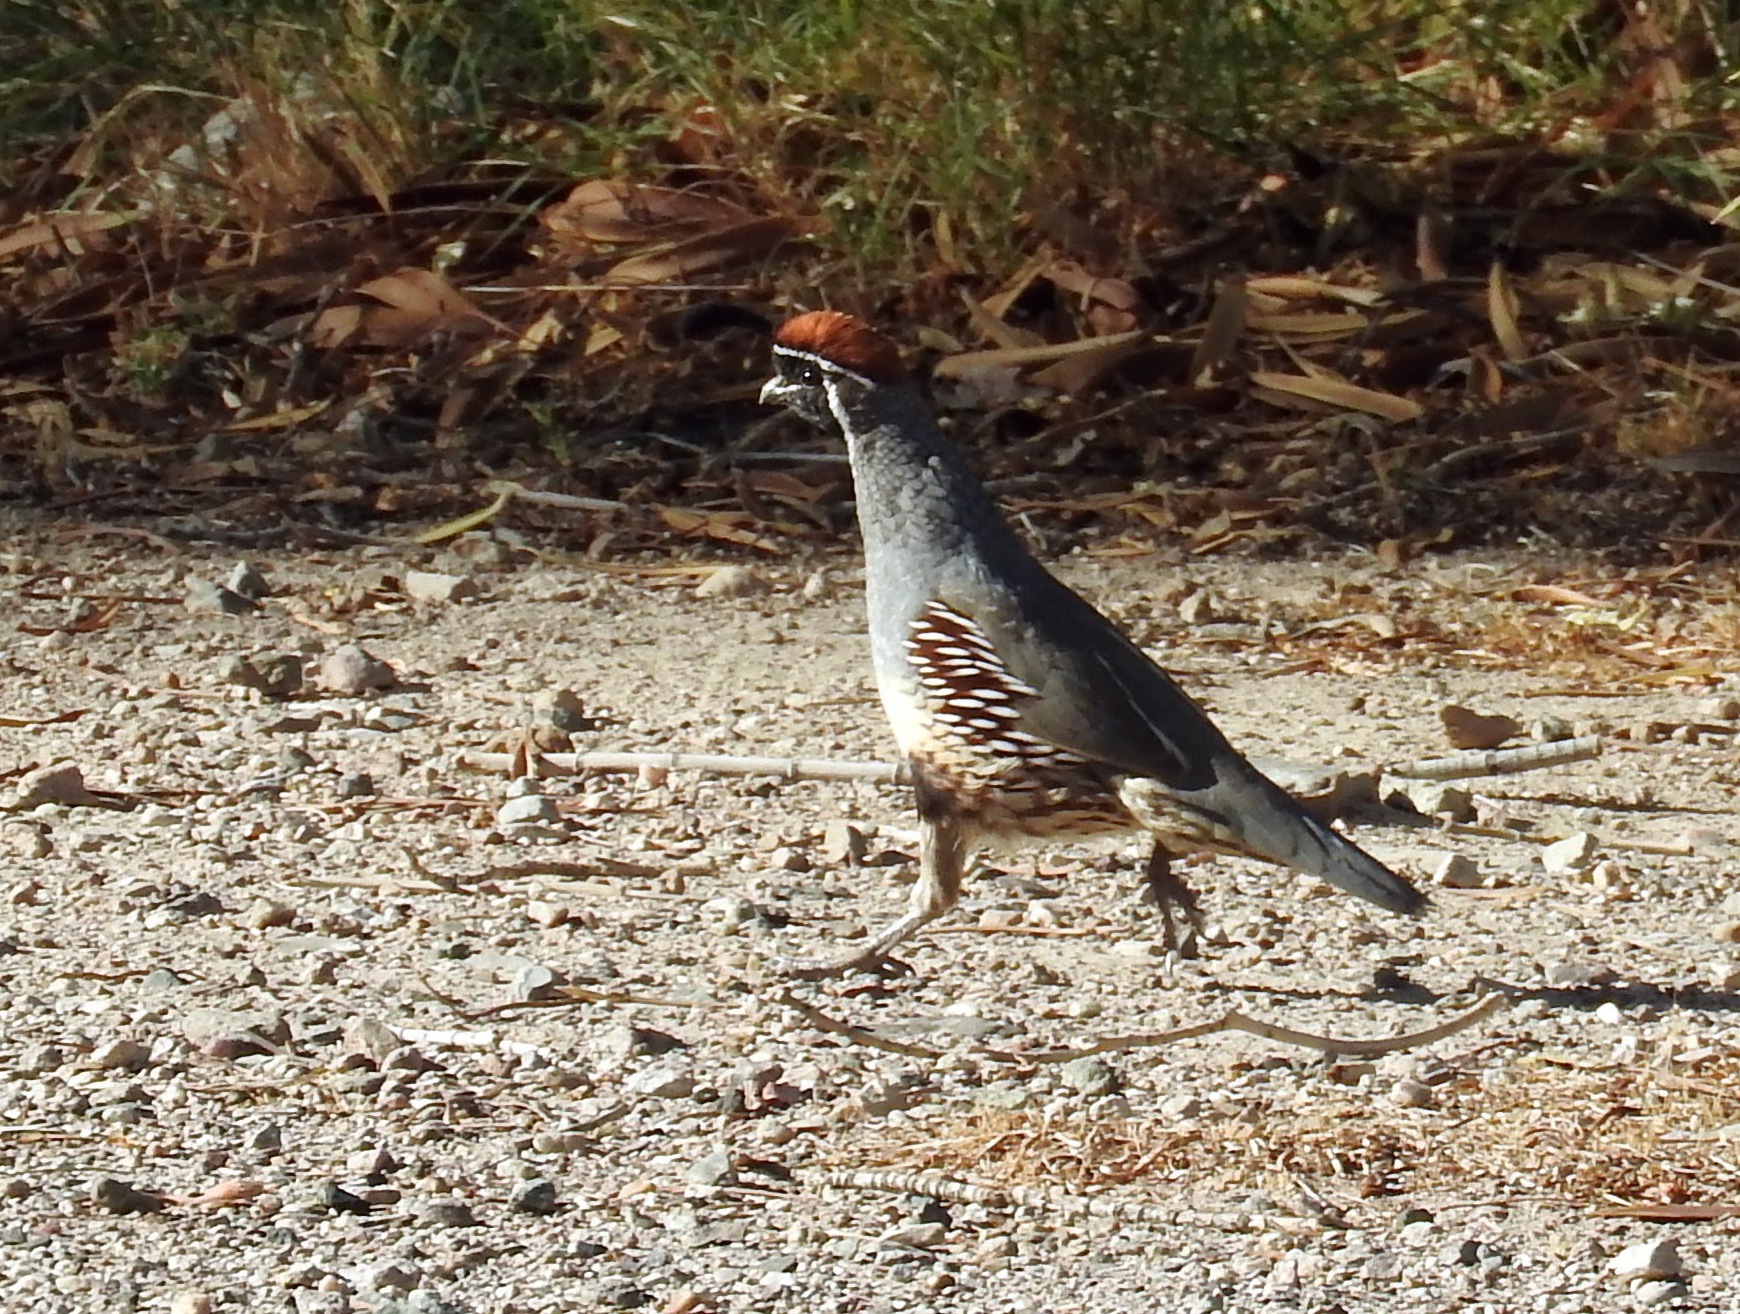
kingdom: Animalia
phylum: Chordata
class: Aves
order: Galliformes
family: Odontophoridae
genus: Callipepla
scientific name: Callipepla gambelii
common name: Gambel's quail
